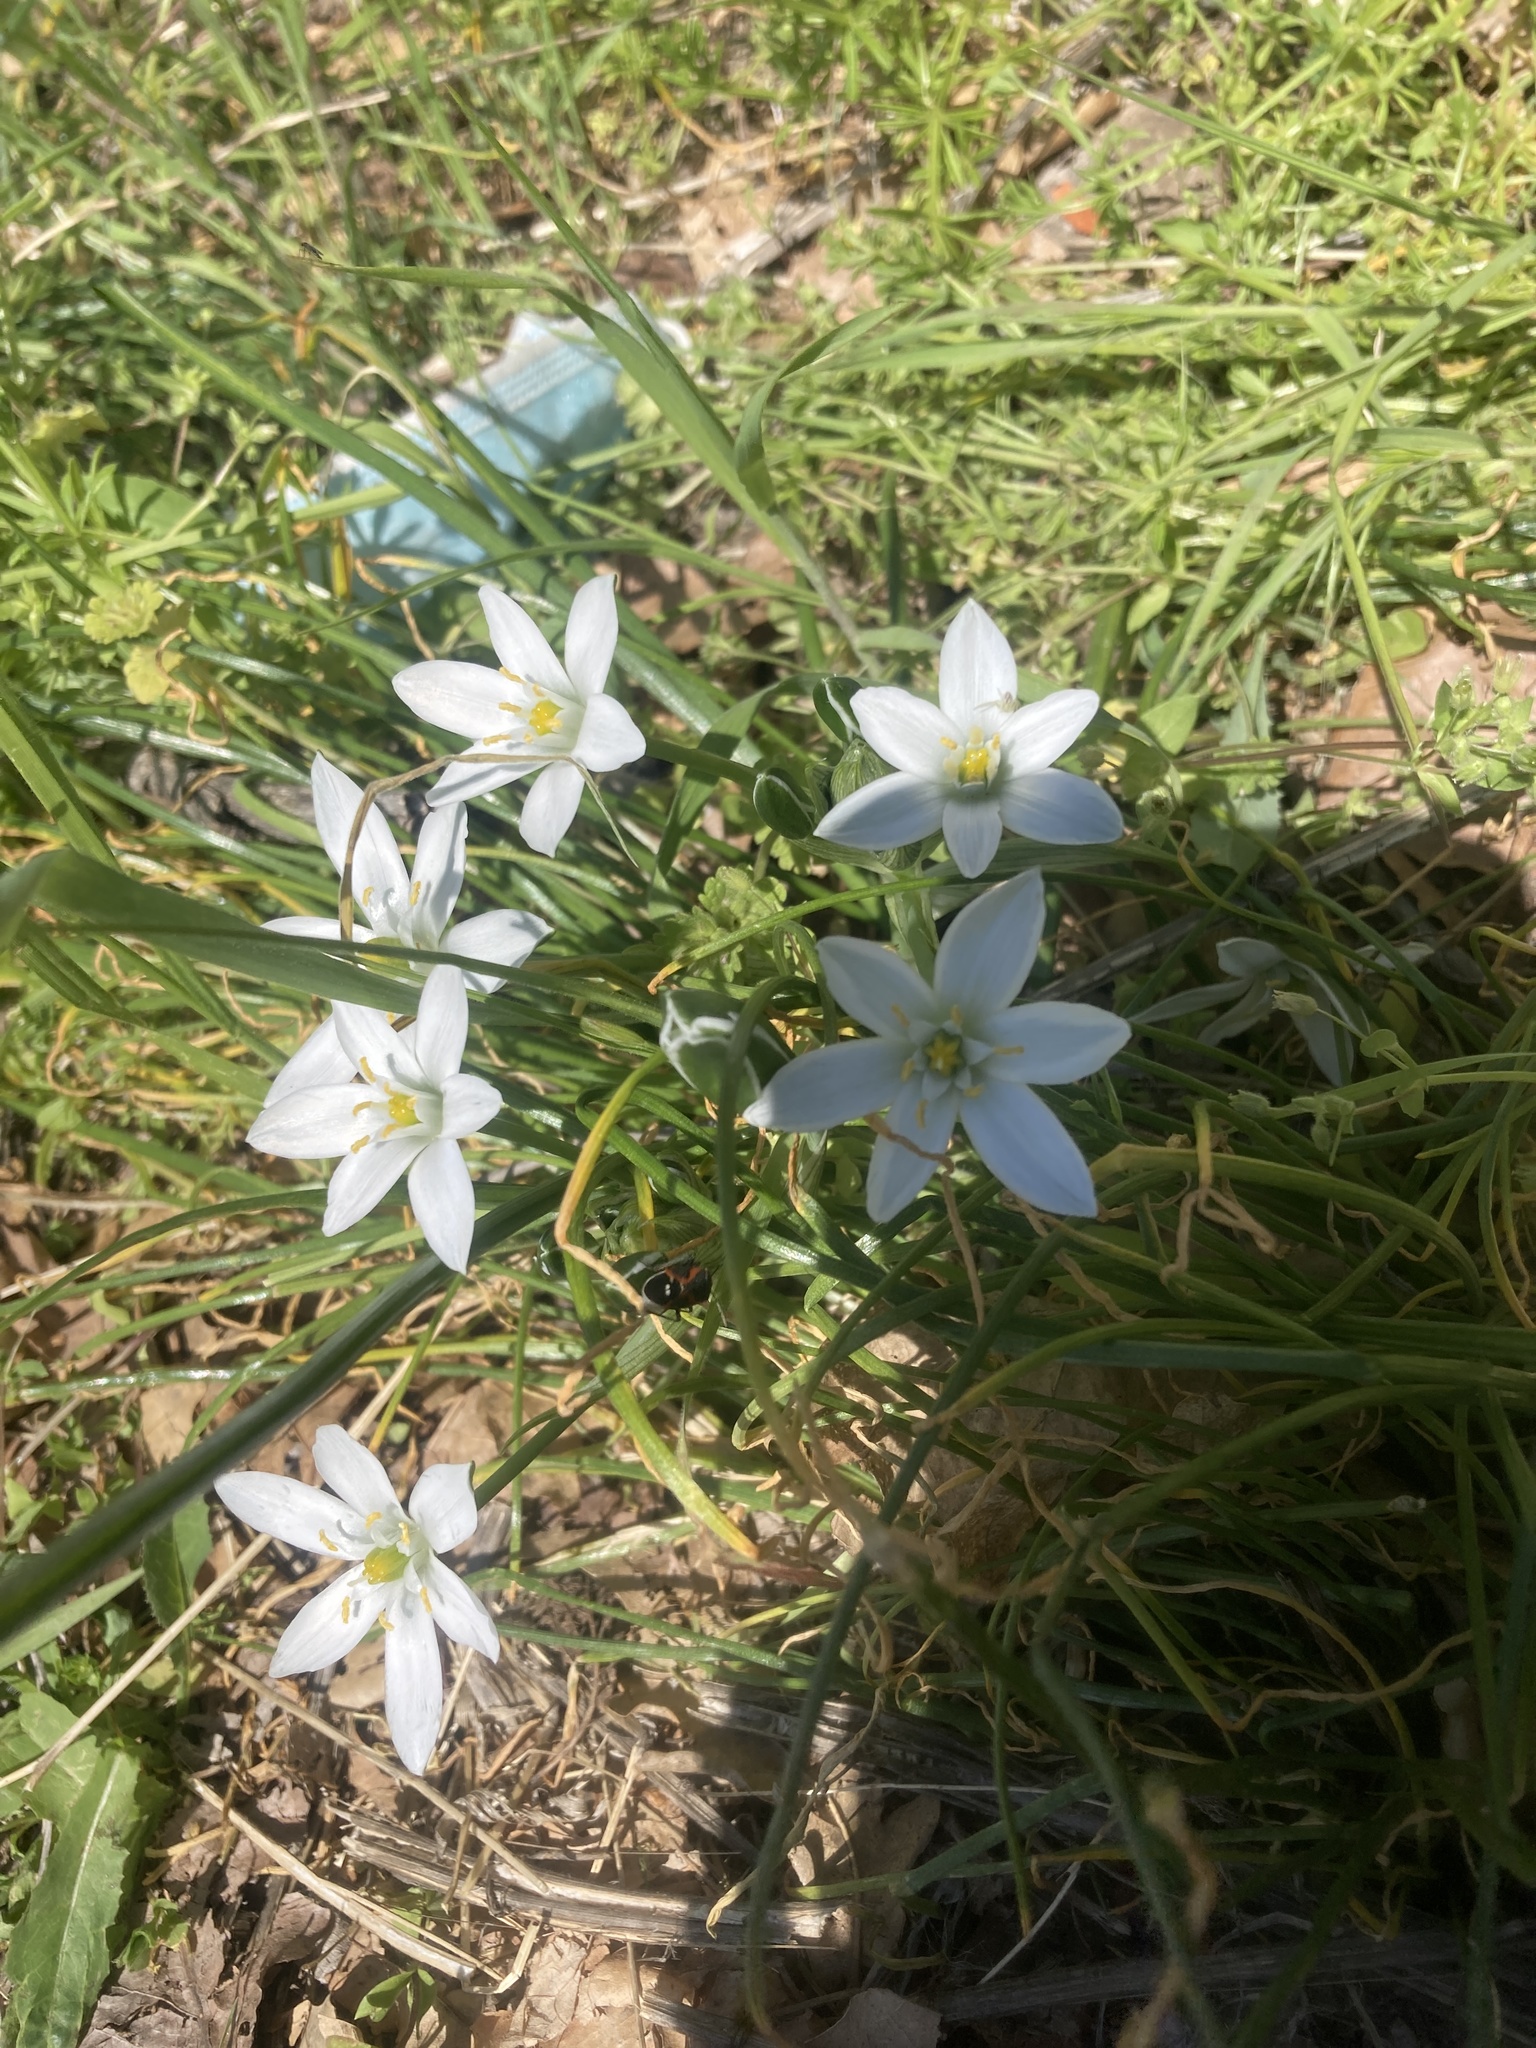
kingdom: Plantae
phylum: Tracheophyta
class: Liliopsida
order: Asparagales
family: Asparagaceae
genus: Ornithogalum
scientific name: Ornithogalum umbellatum
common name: Garden star-of-bethlehem
